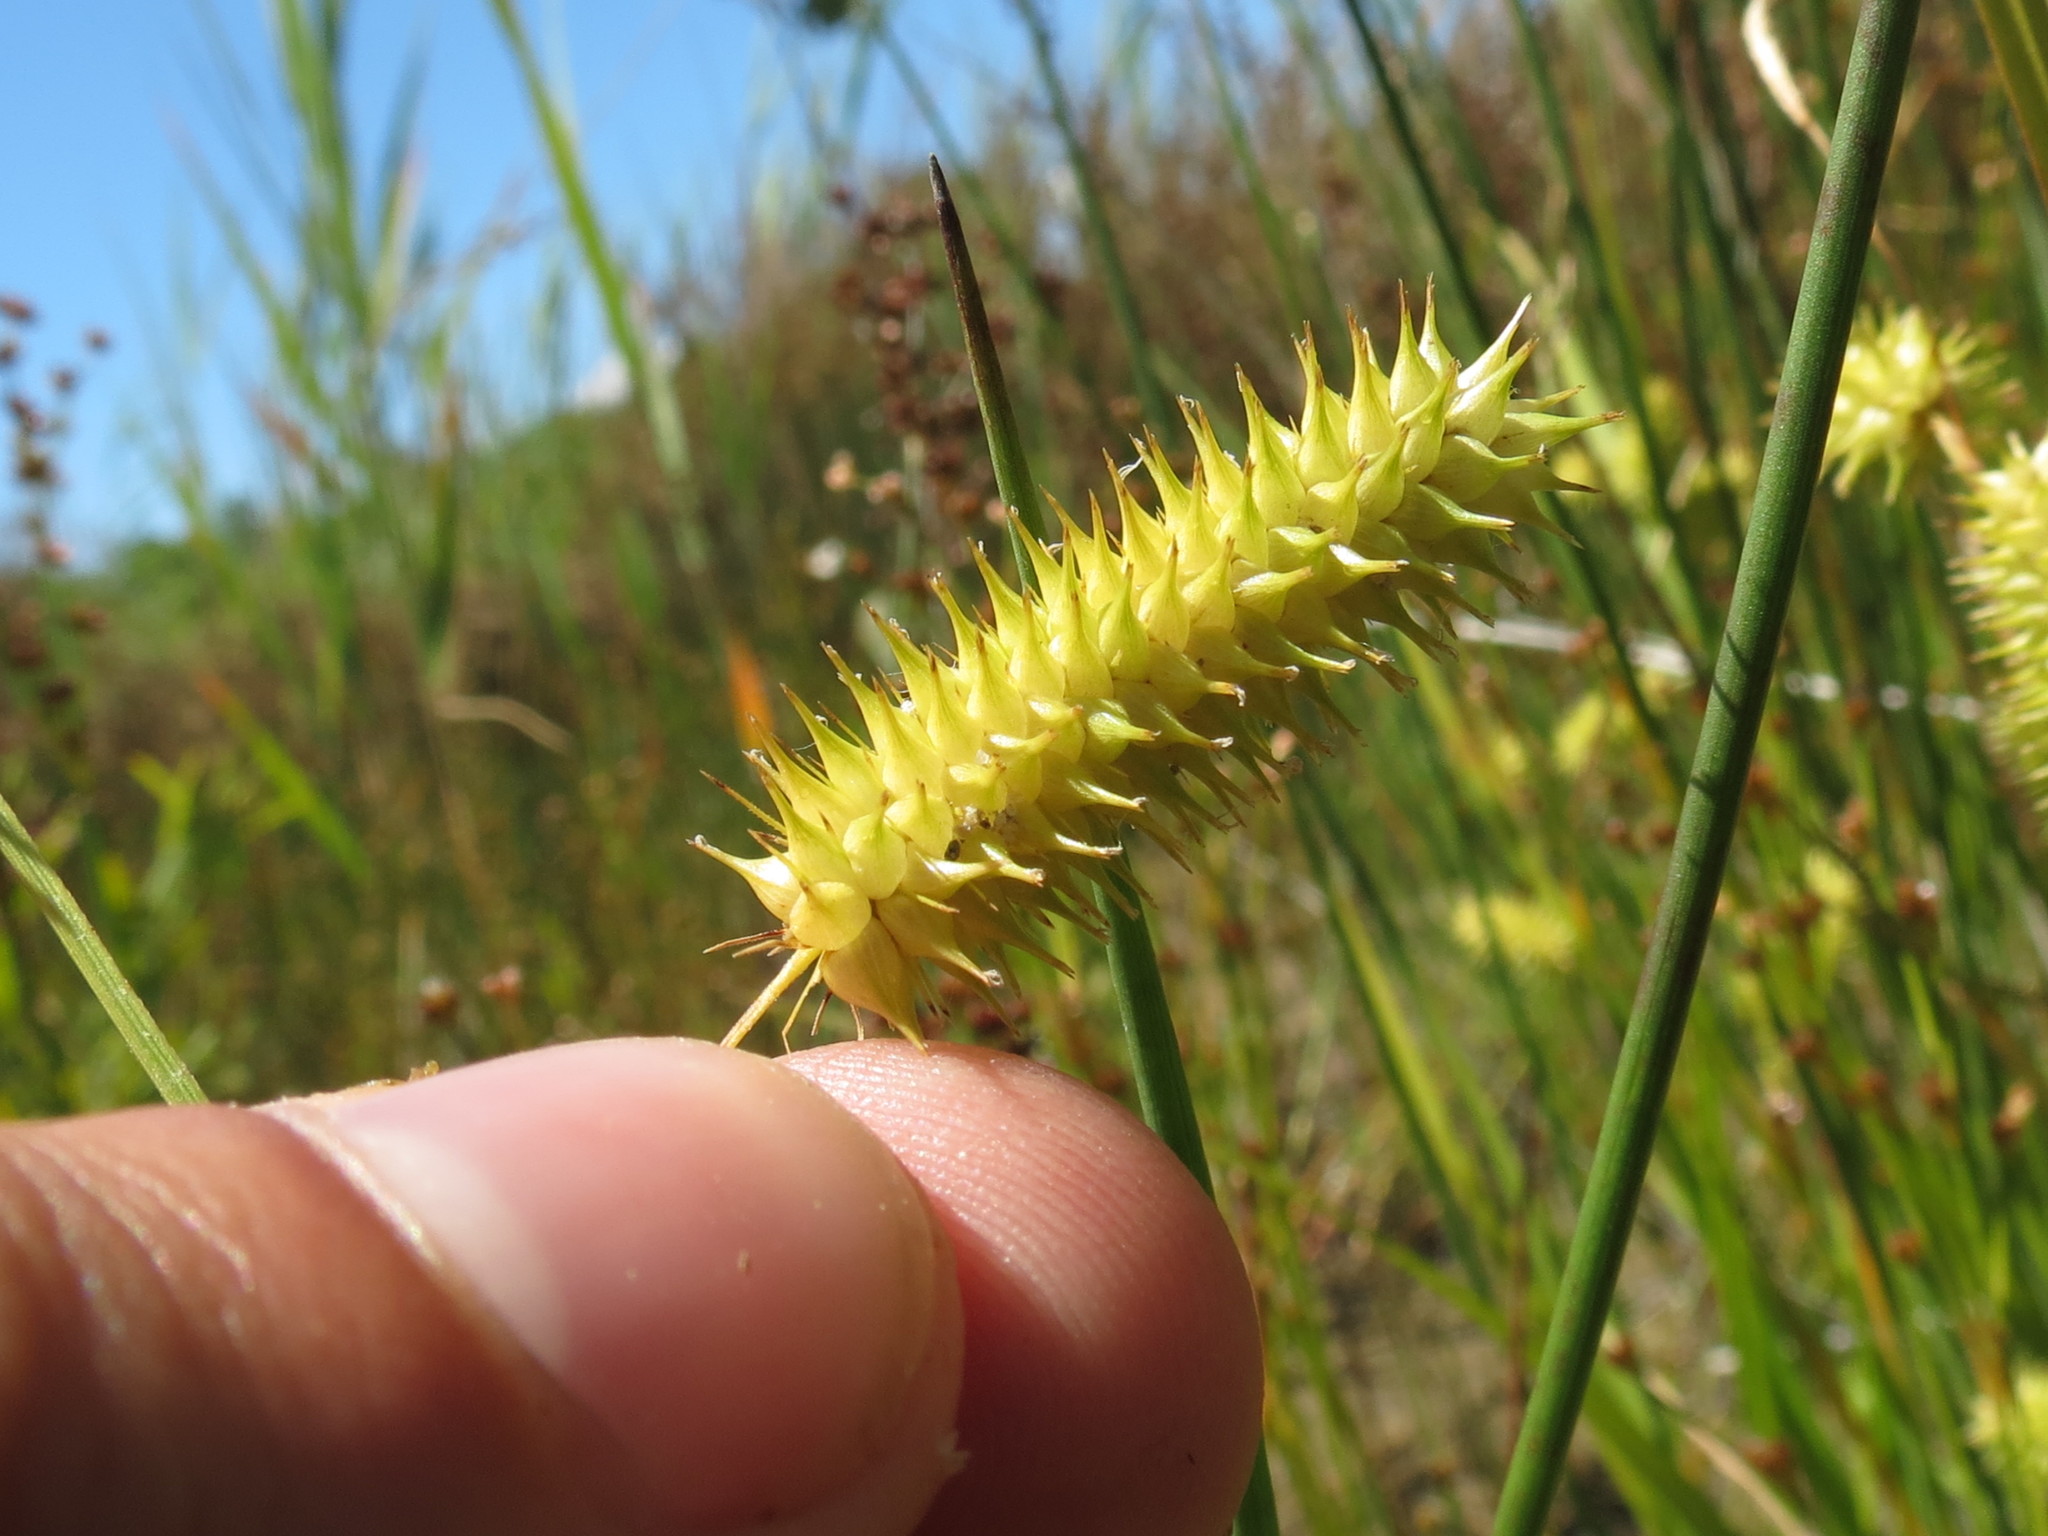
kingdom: Plantae
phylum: Tracheophyta
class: Liliopsida
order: Poales
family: Cyperaceae
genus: Carex
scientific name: Carex hystericina
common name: Bottlebrush sedge
